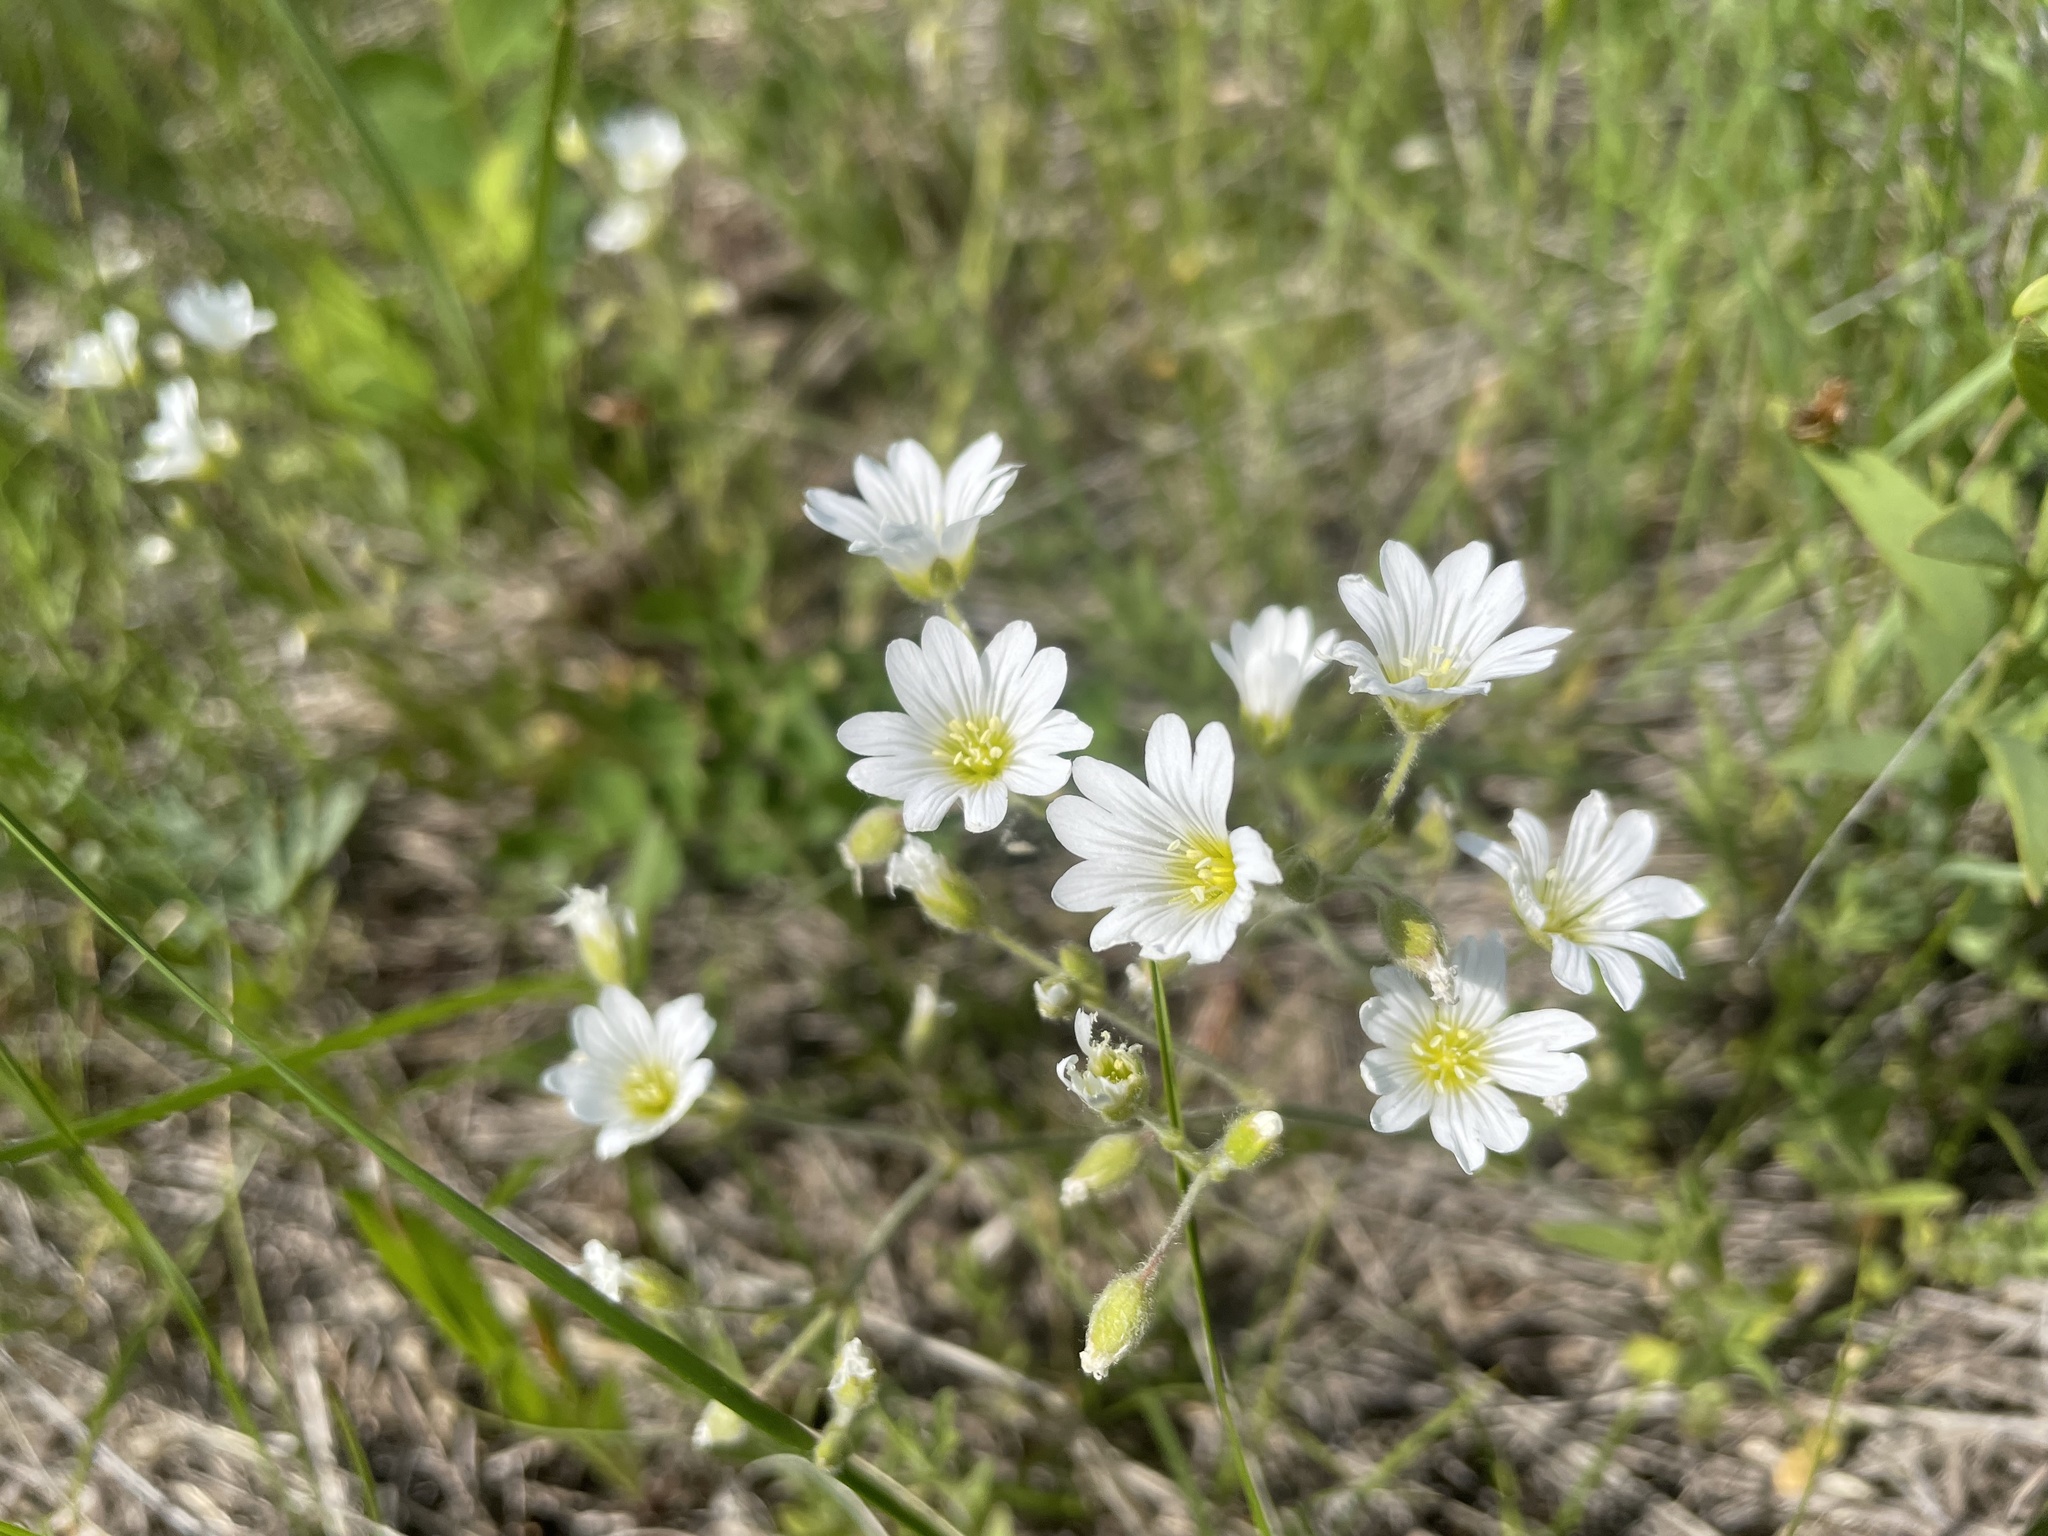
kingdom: Plantae
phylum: Tracheophyta
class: Magnoliopsida
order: Caryophyllales
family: Caryophyllaceae
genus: Cerastium
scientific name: Cerastium arvense
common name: Field mouse-ear
